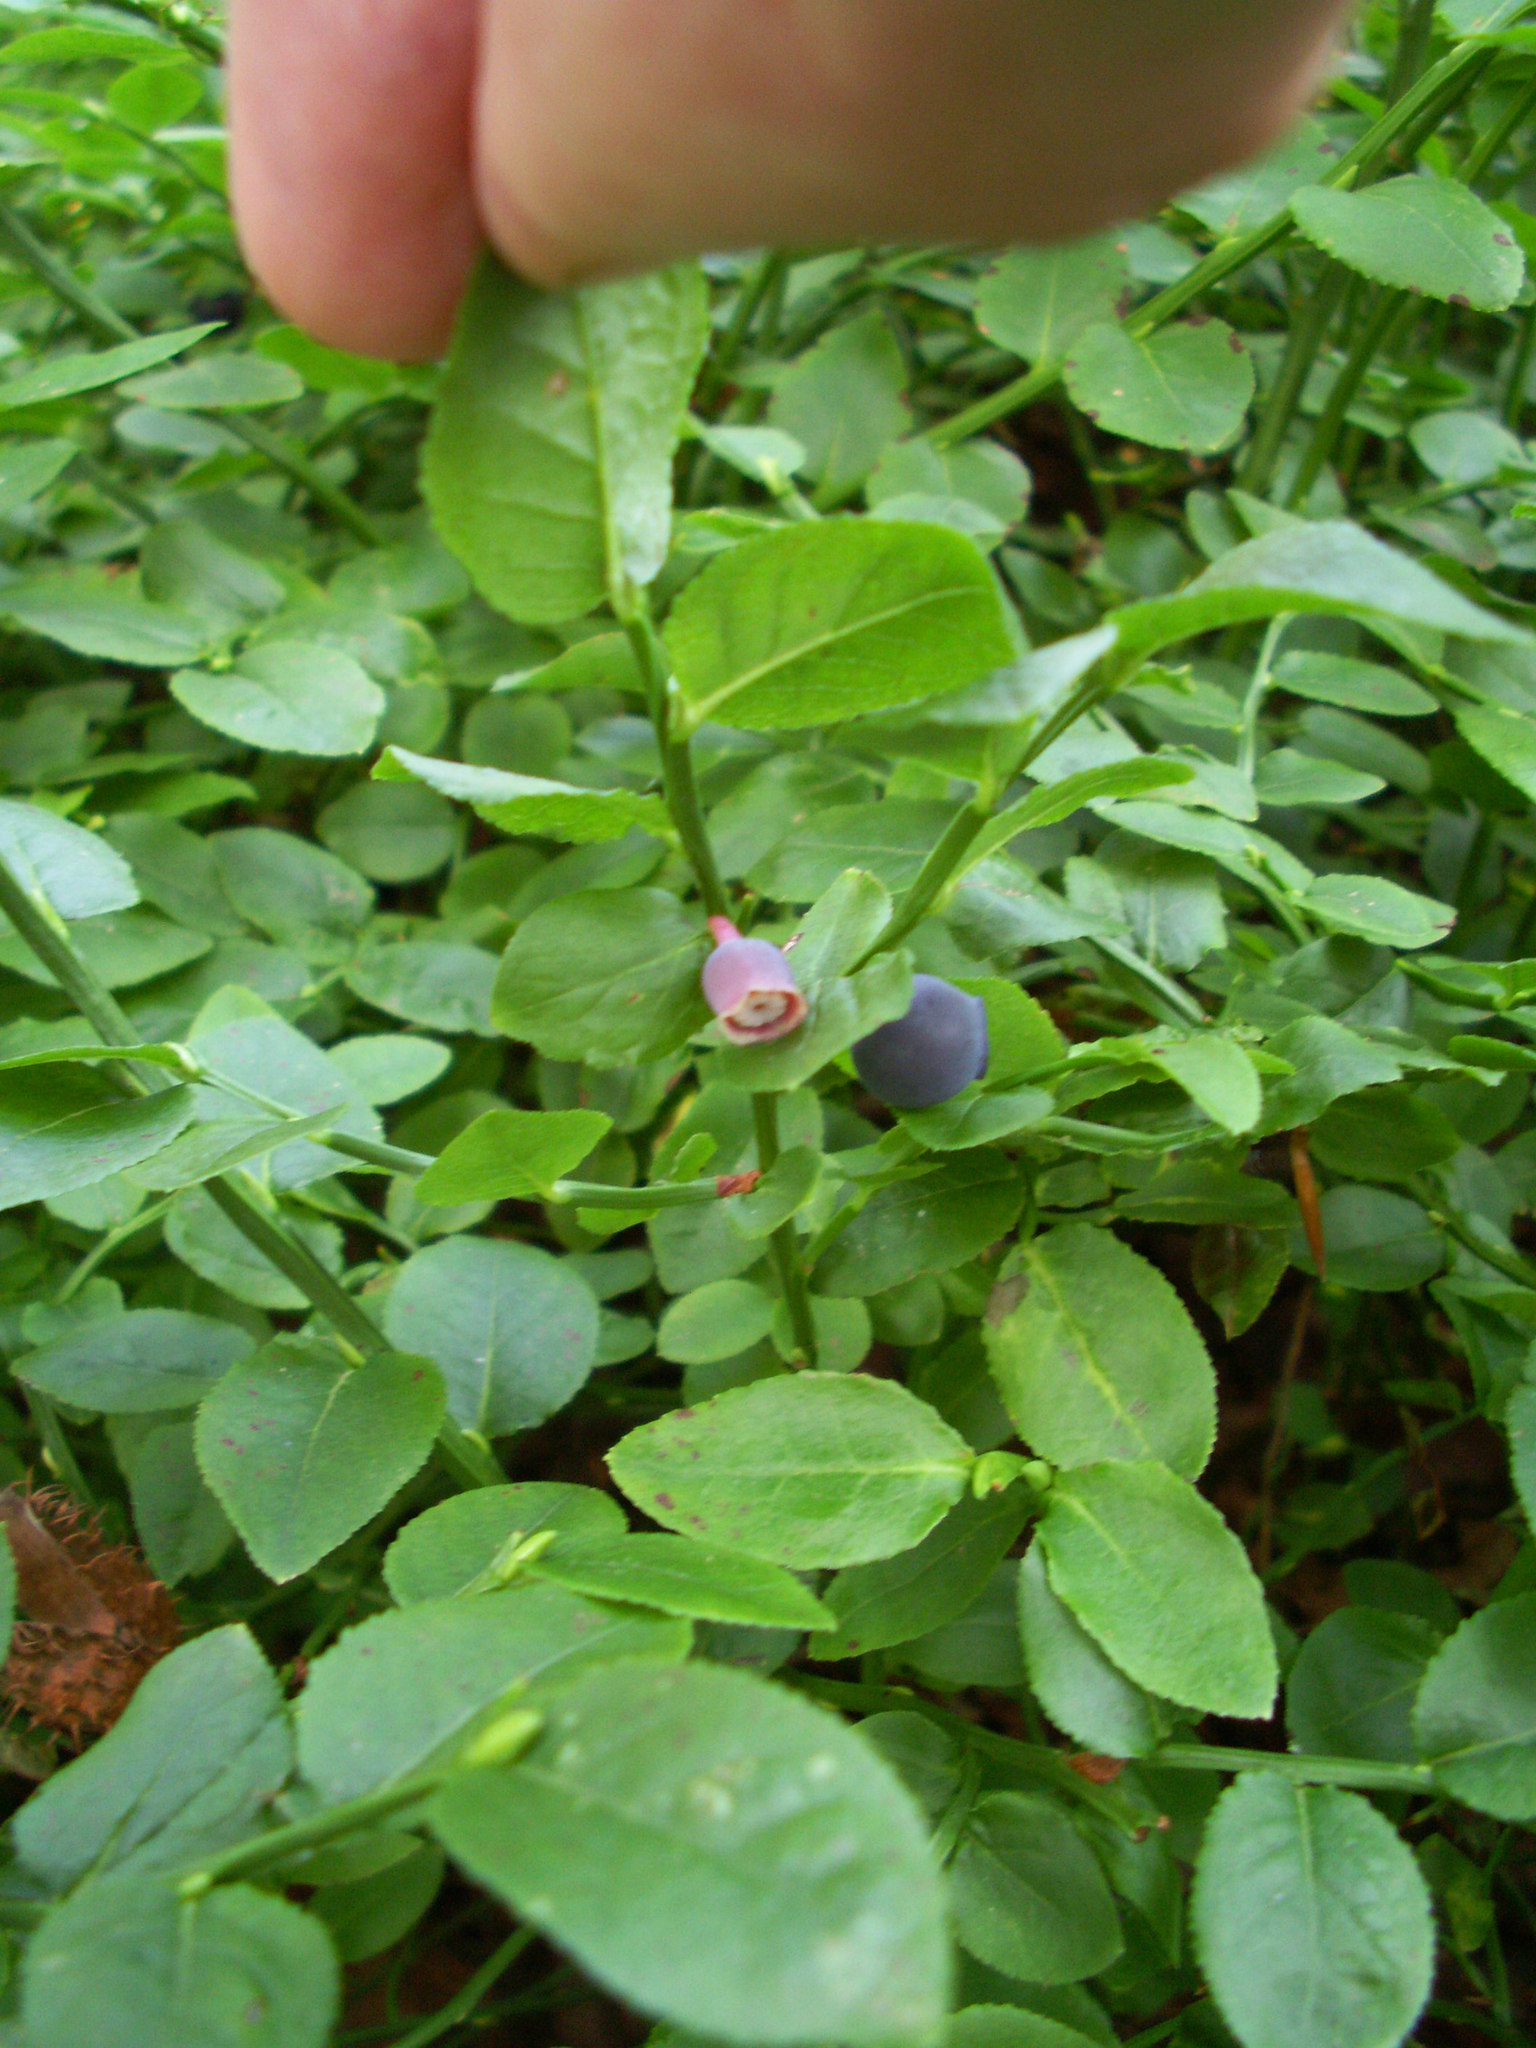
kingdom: Plantae
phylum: Tracheophyta
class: Magnoliopsida
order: Ericales
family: Ericaceae
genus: Vaccinium
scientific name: Vaccinium myrtillus
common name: Bilberry
